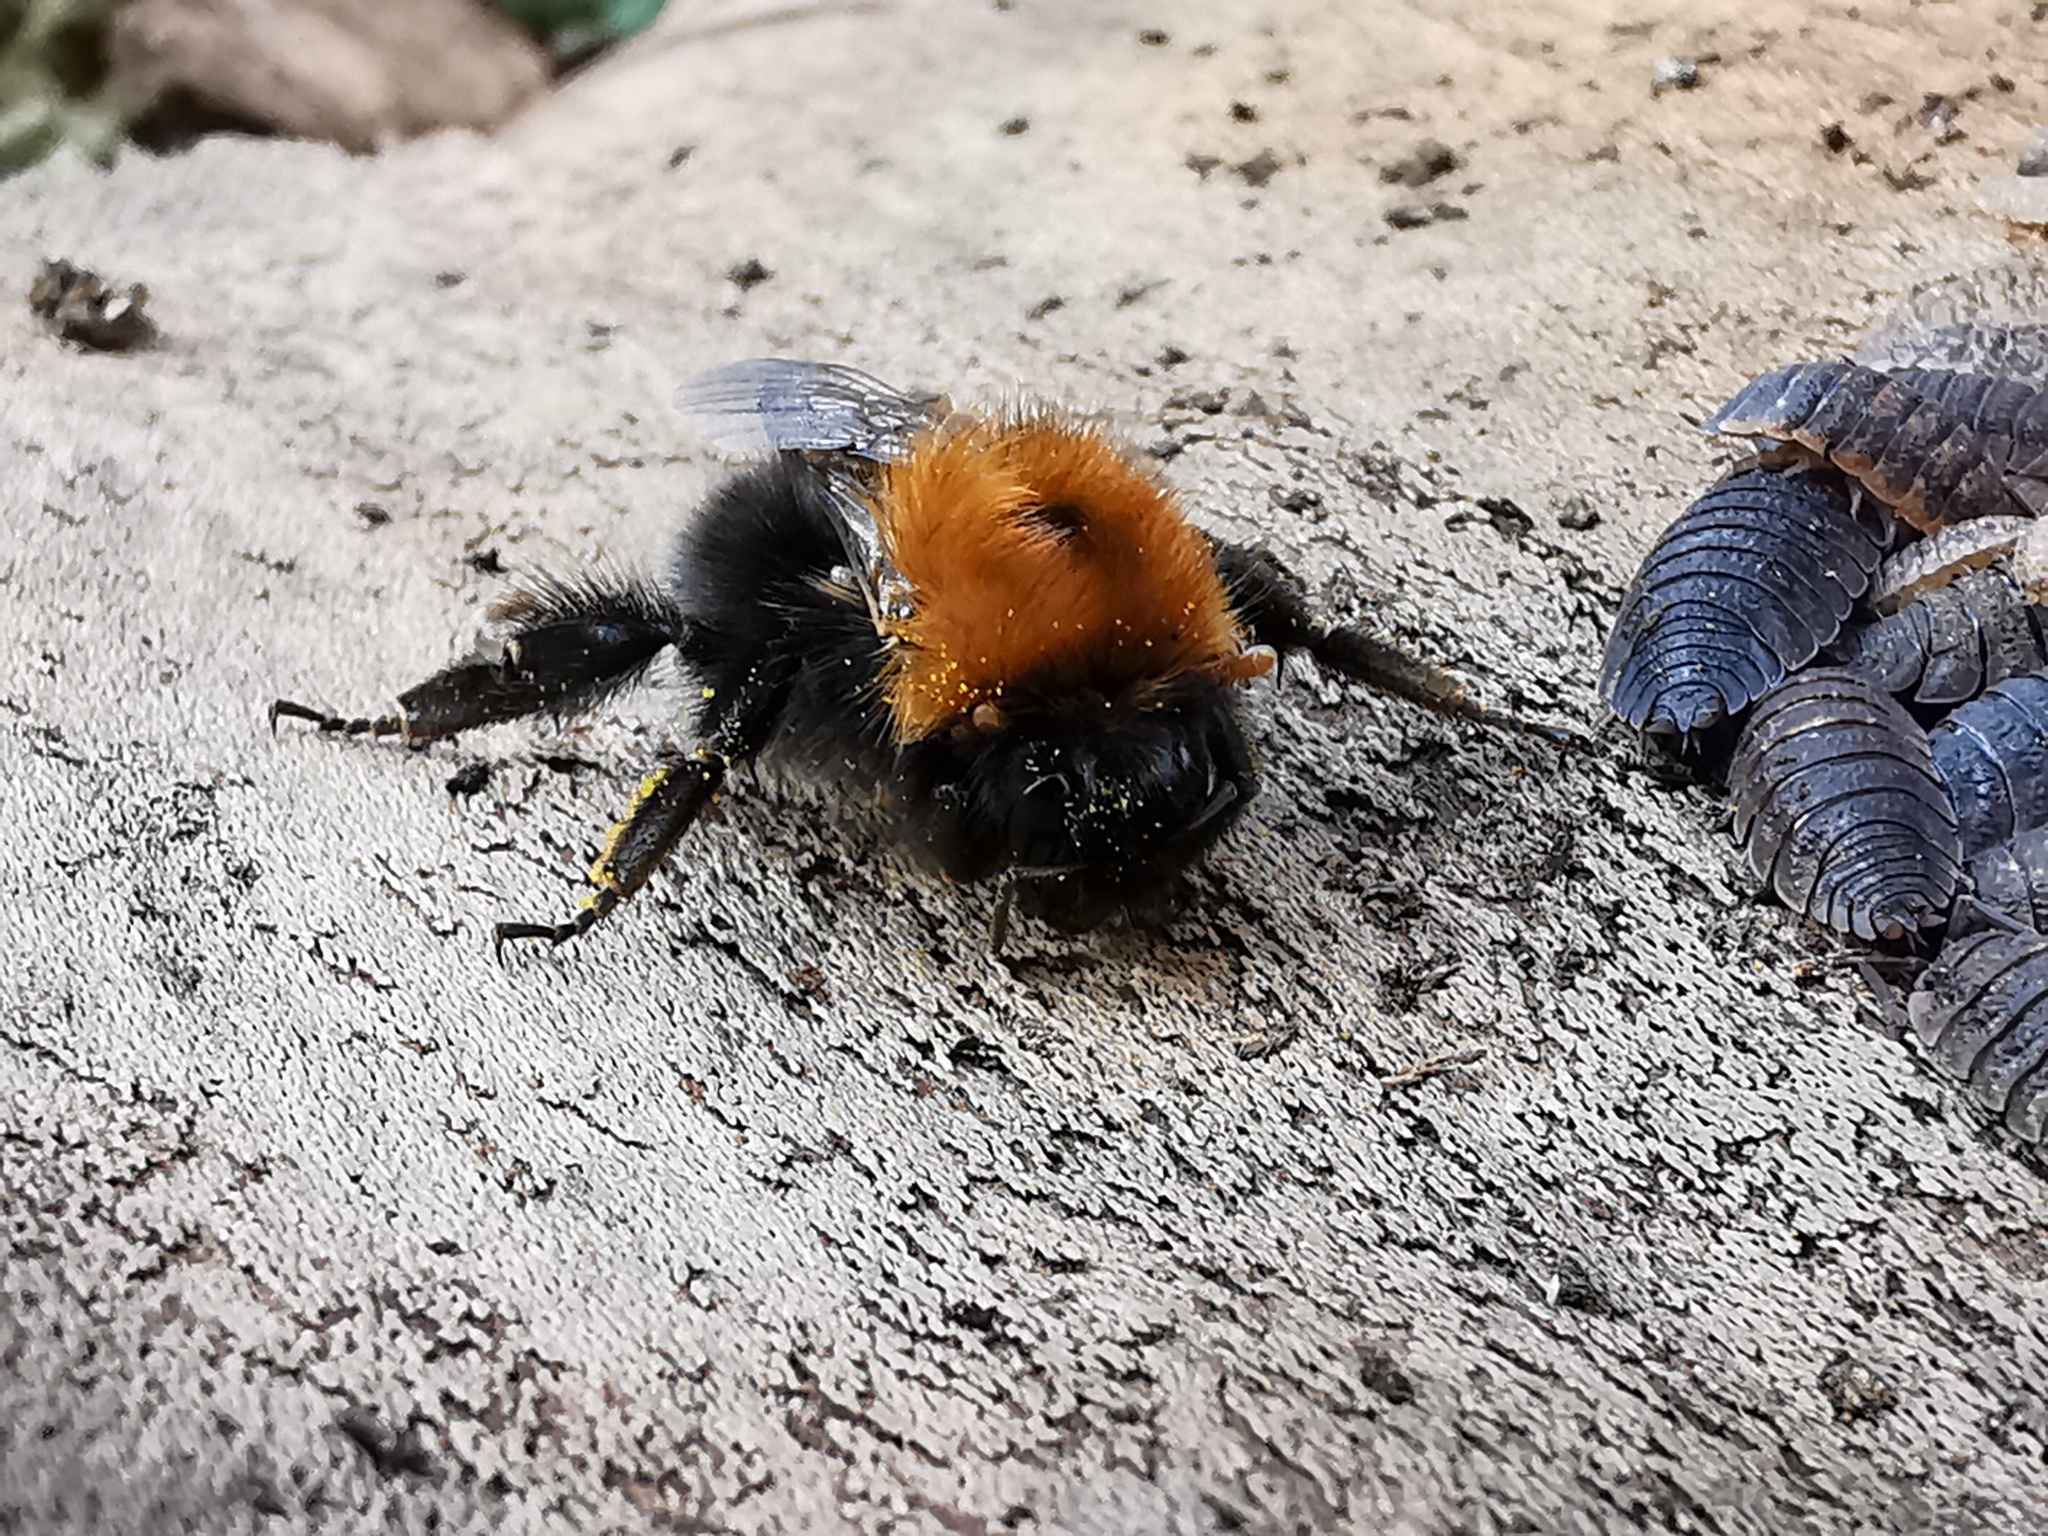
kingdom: Animalia
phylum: Arthropoda
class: Insecta
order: Hymenoptera
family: Apidae
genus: Bombus
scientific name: Bombus hypnorum
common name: New garden bumblebee
